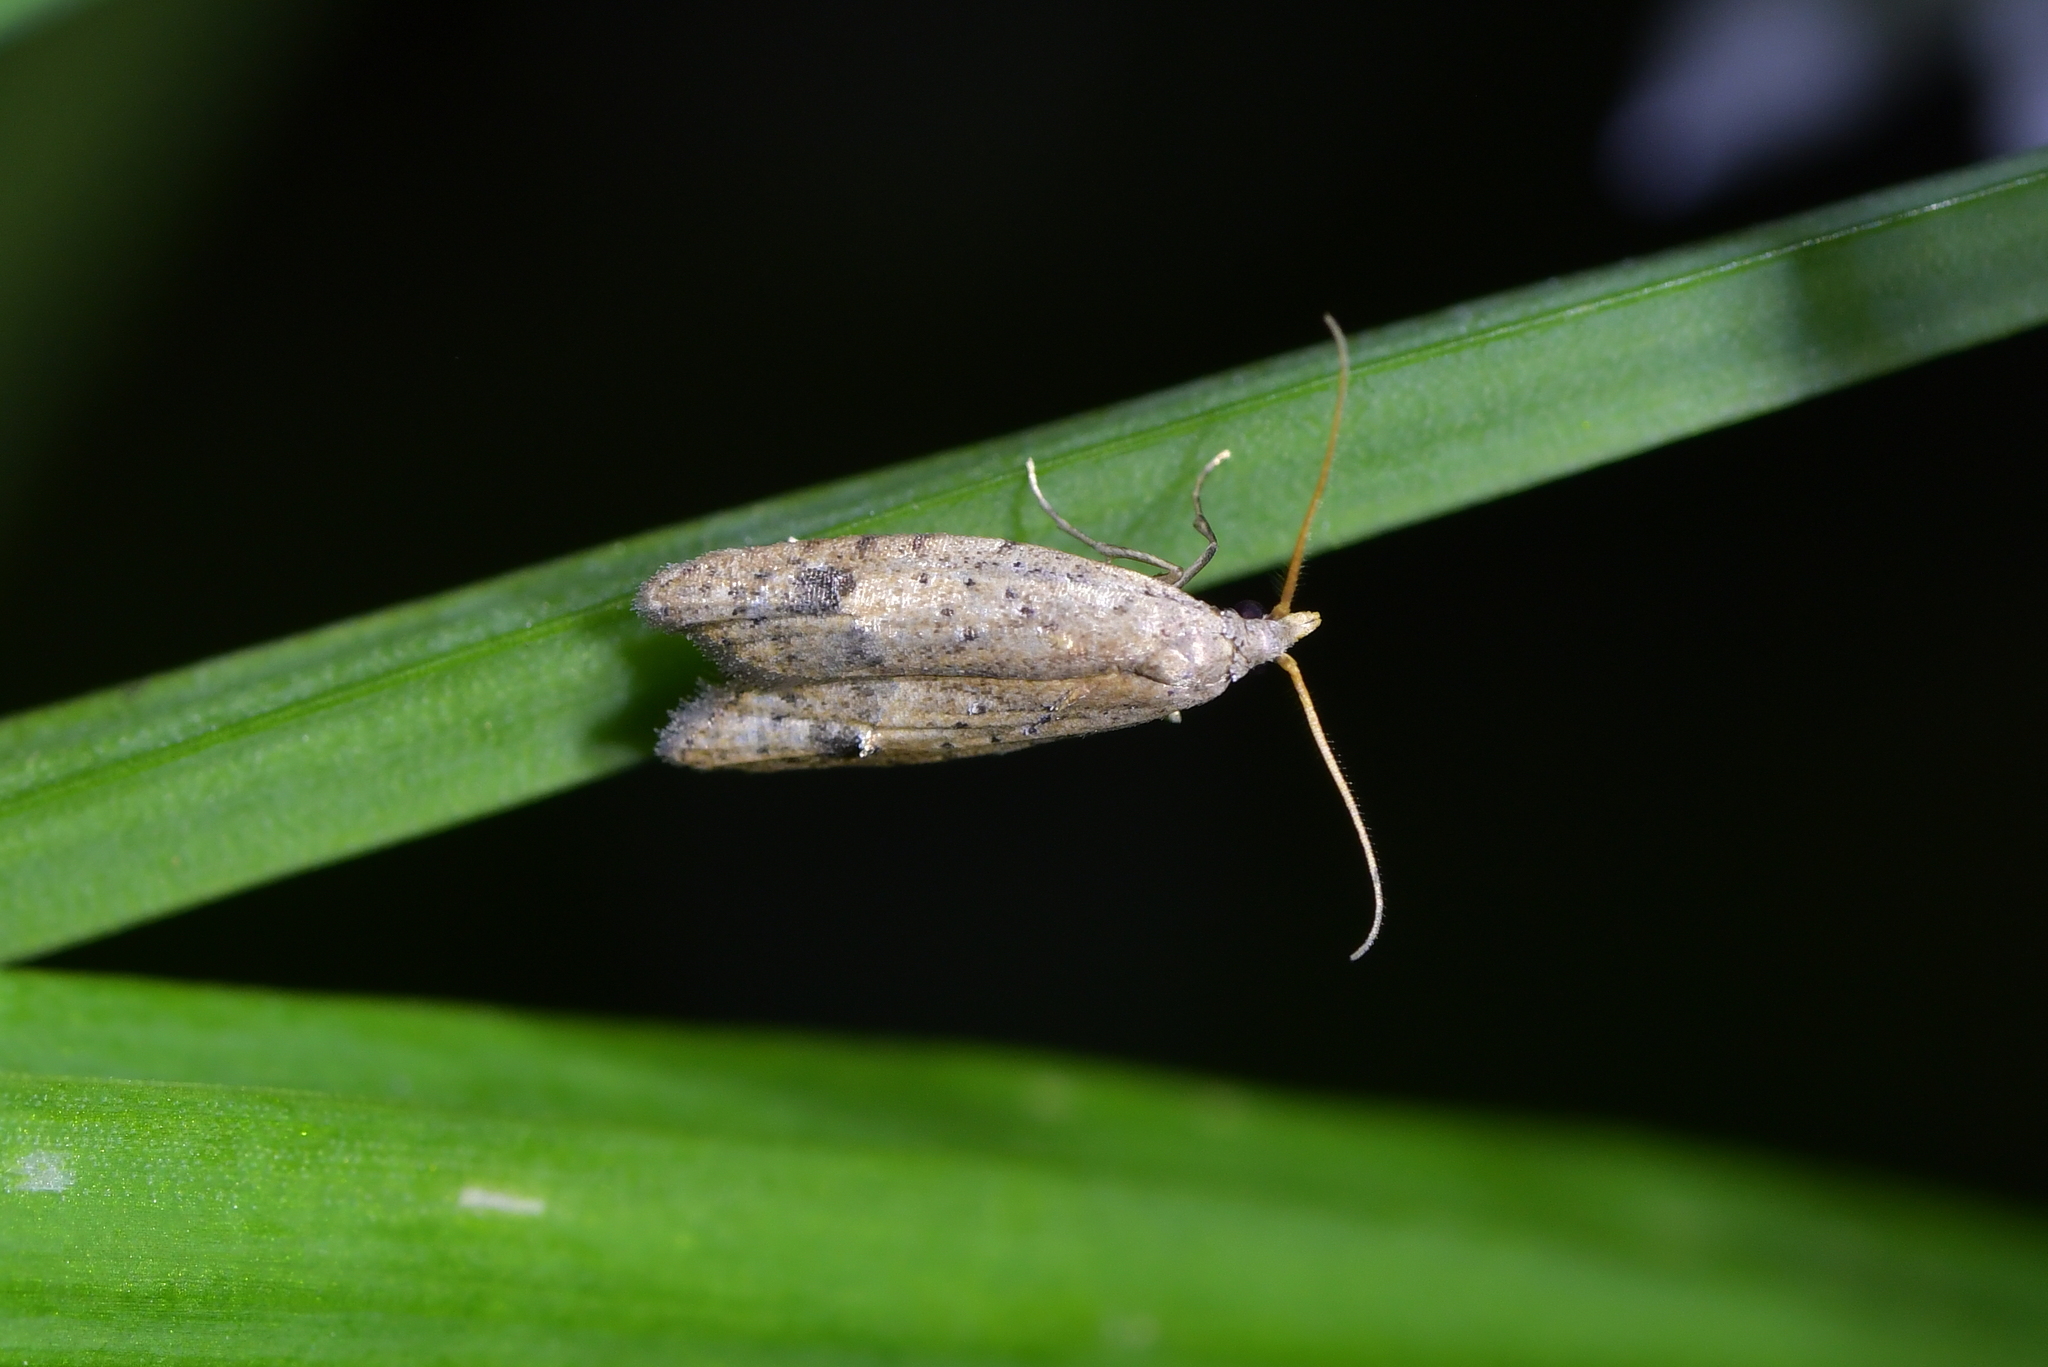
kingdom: Animalia
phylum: Arthropoda
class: Insecta
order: Lepidoptera
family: Carposinidae
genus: Carposina
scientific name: Carposina rubophaga
